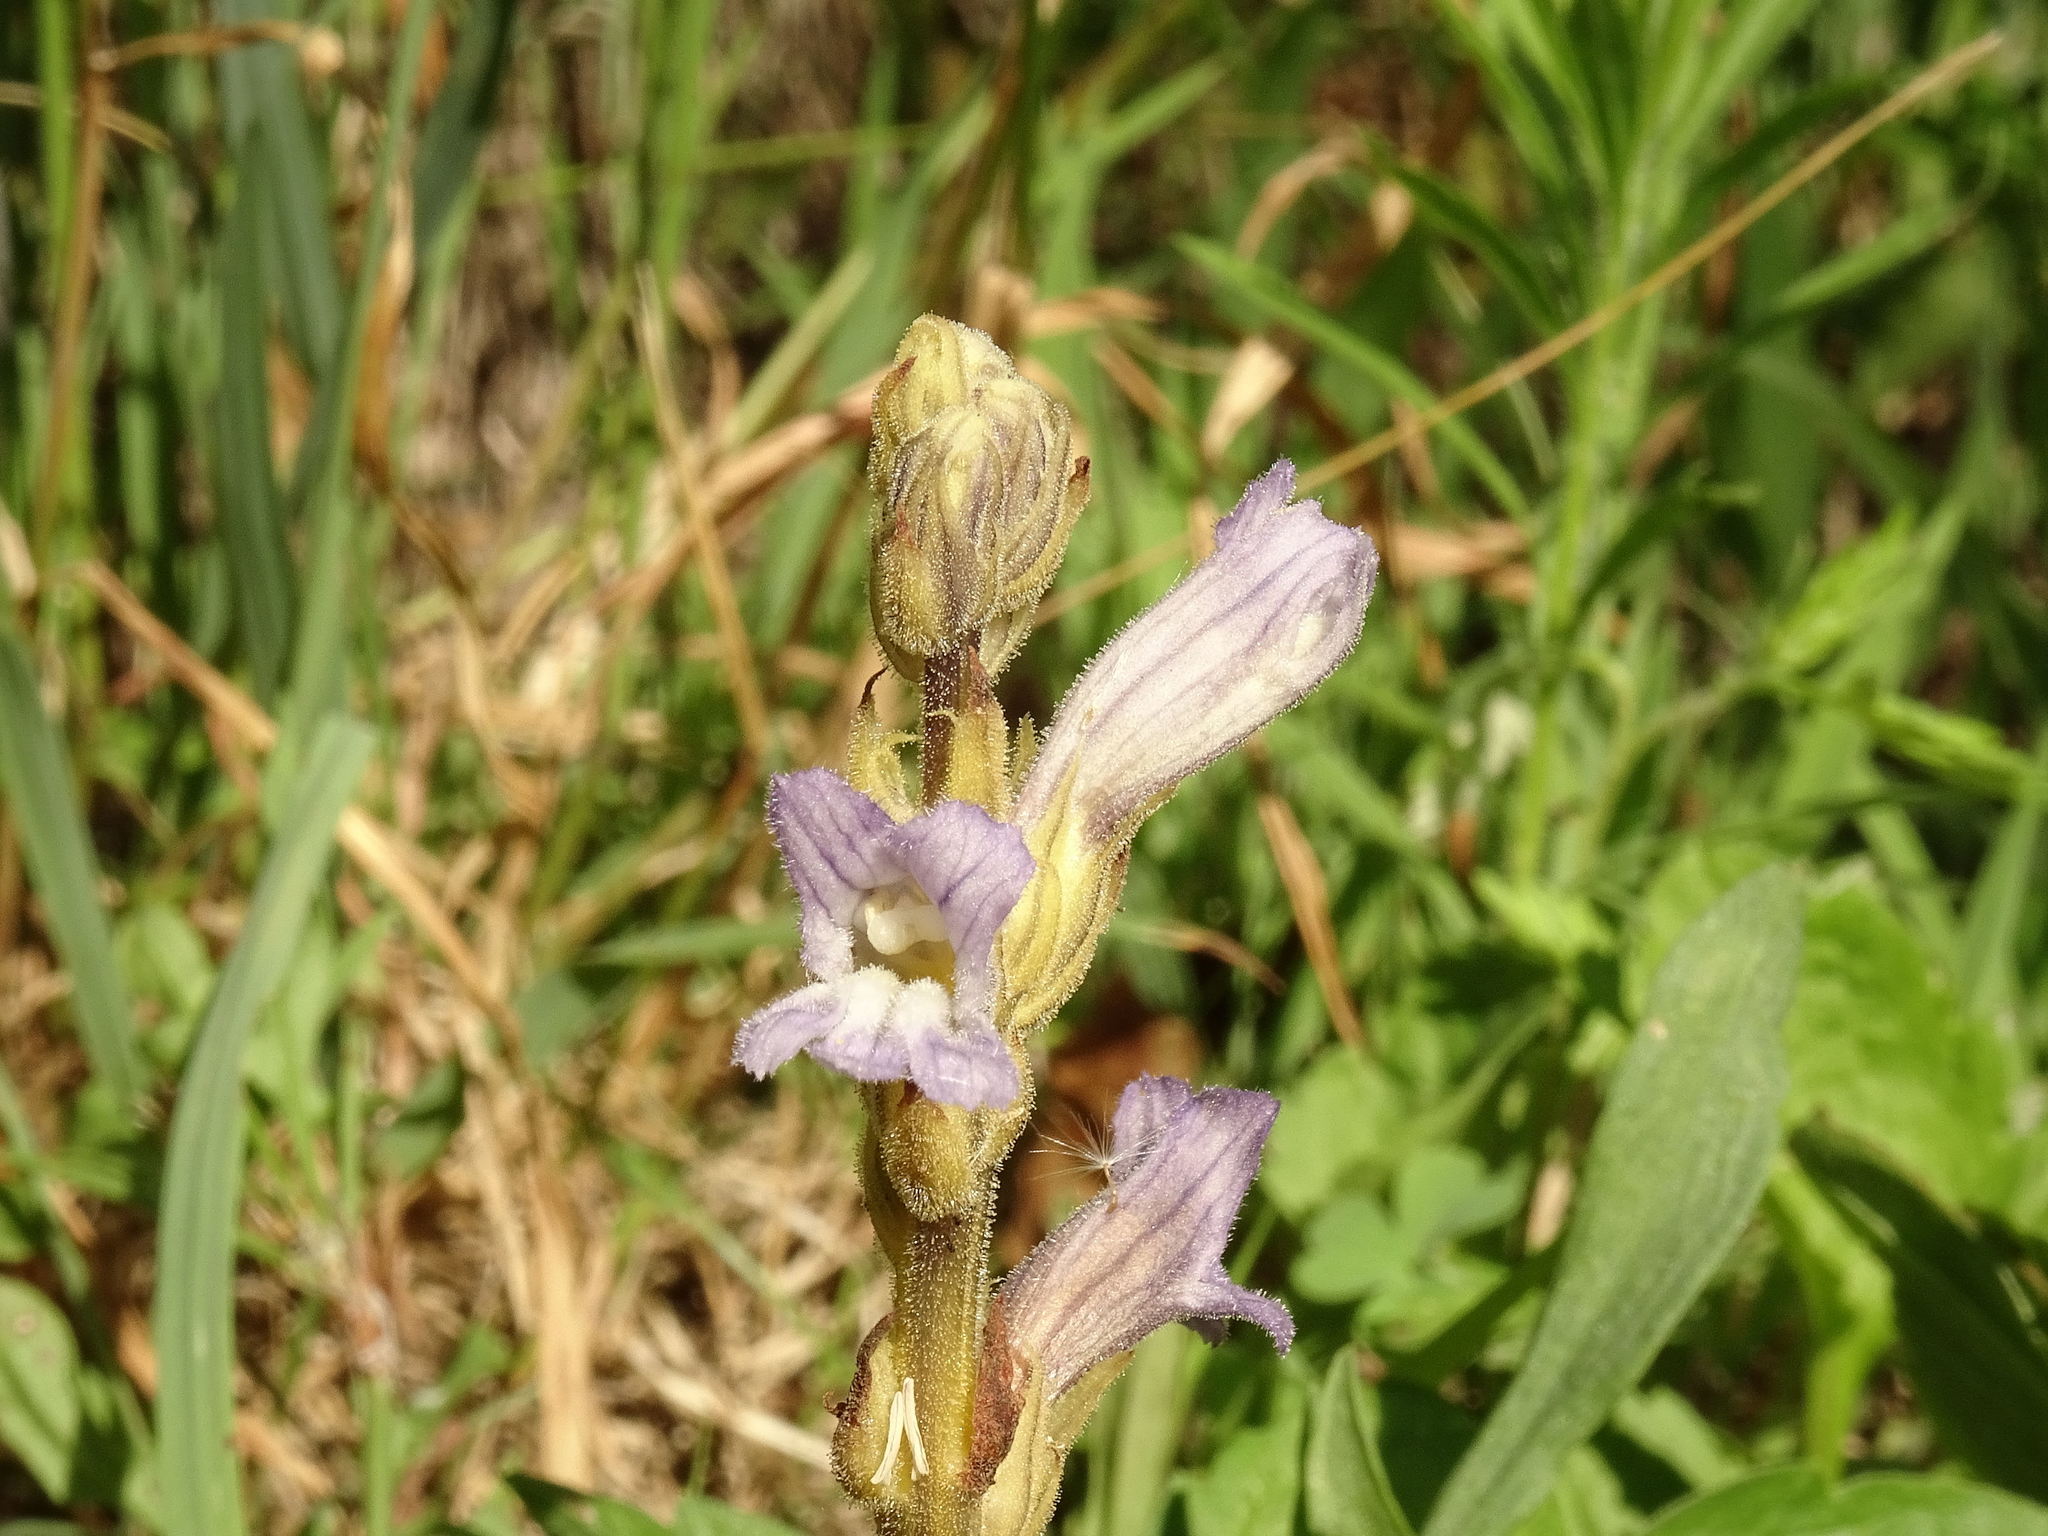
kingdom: Plantae
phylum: Tracheophyta
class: Magnoliopsida
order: Lamiales
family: Orobanchaceae
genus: Phelipanche
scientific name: Phelipanche purpurea
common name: Purple broomrape
